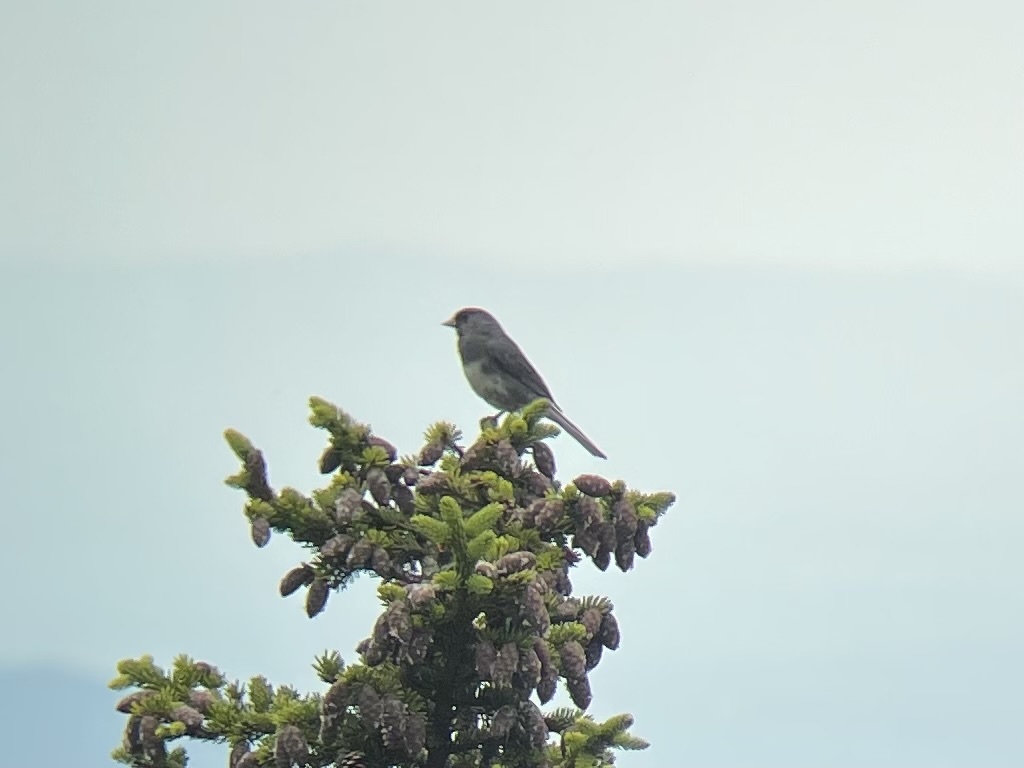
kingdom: Animalia
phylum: Chordata
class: Aves
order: Passeriformes
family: Passerellidae
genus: Junco
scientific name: Junco hyemalis
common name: Dark-eyed junco
